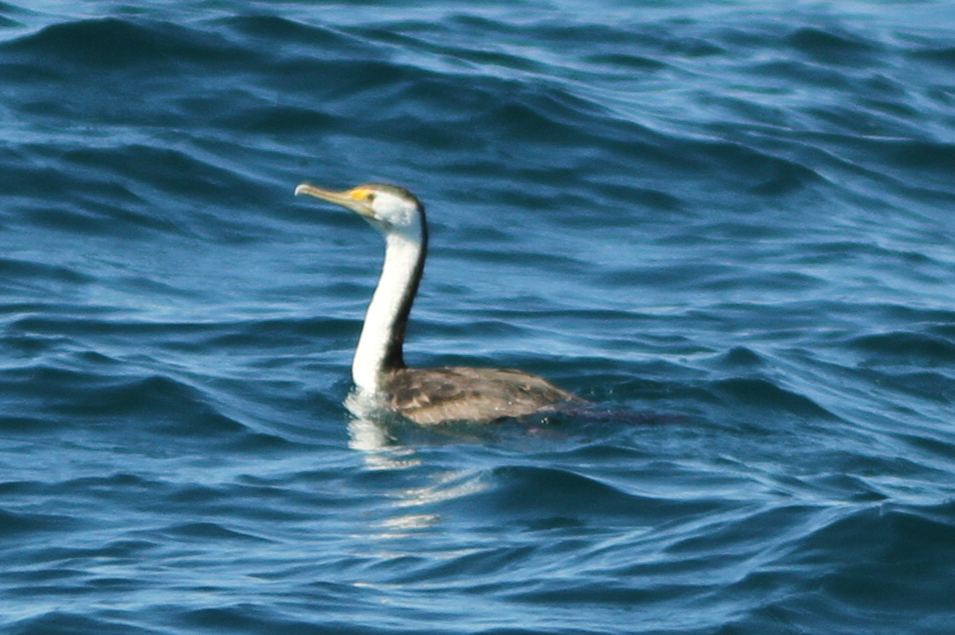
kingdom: Animalia
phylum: Chordata
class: Aves
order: Suliformes
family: Phalacrocoracidae
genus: Phalacrocorax
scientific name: Phalacrocorax varius
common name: Pied cormorant
